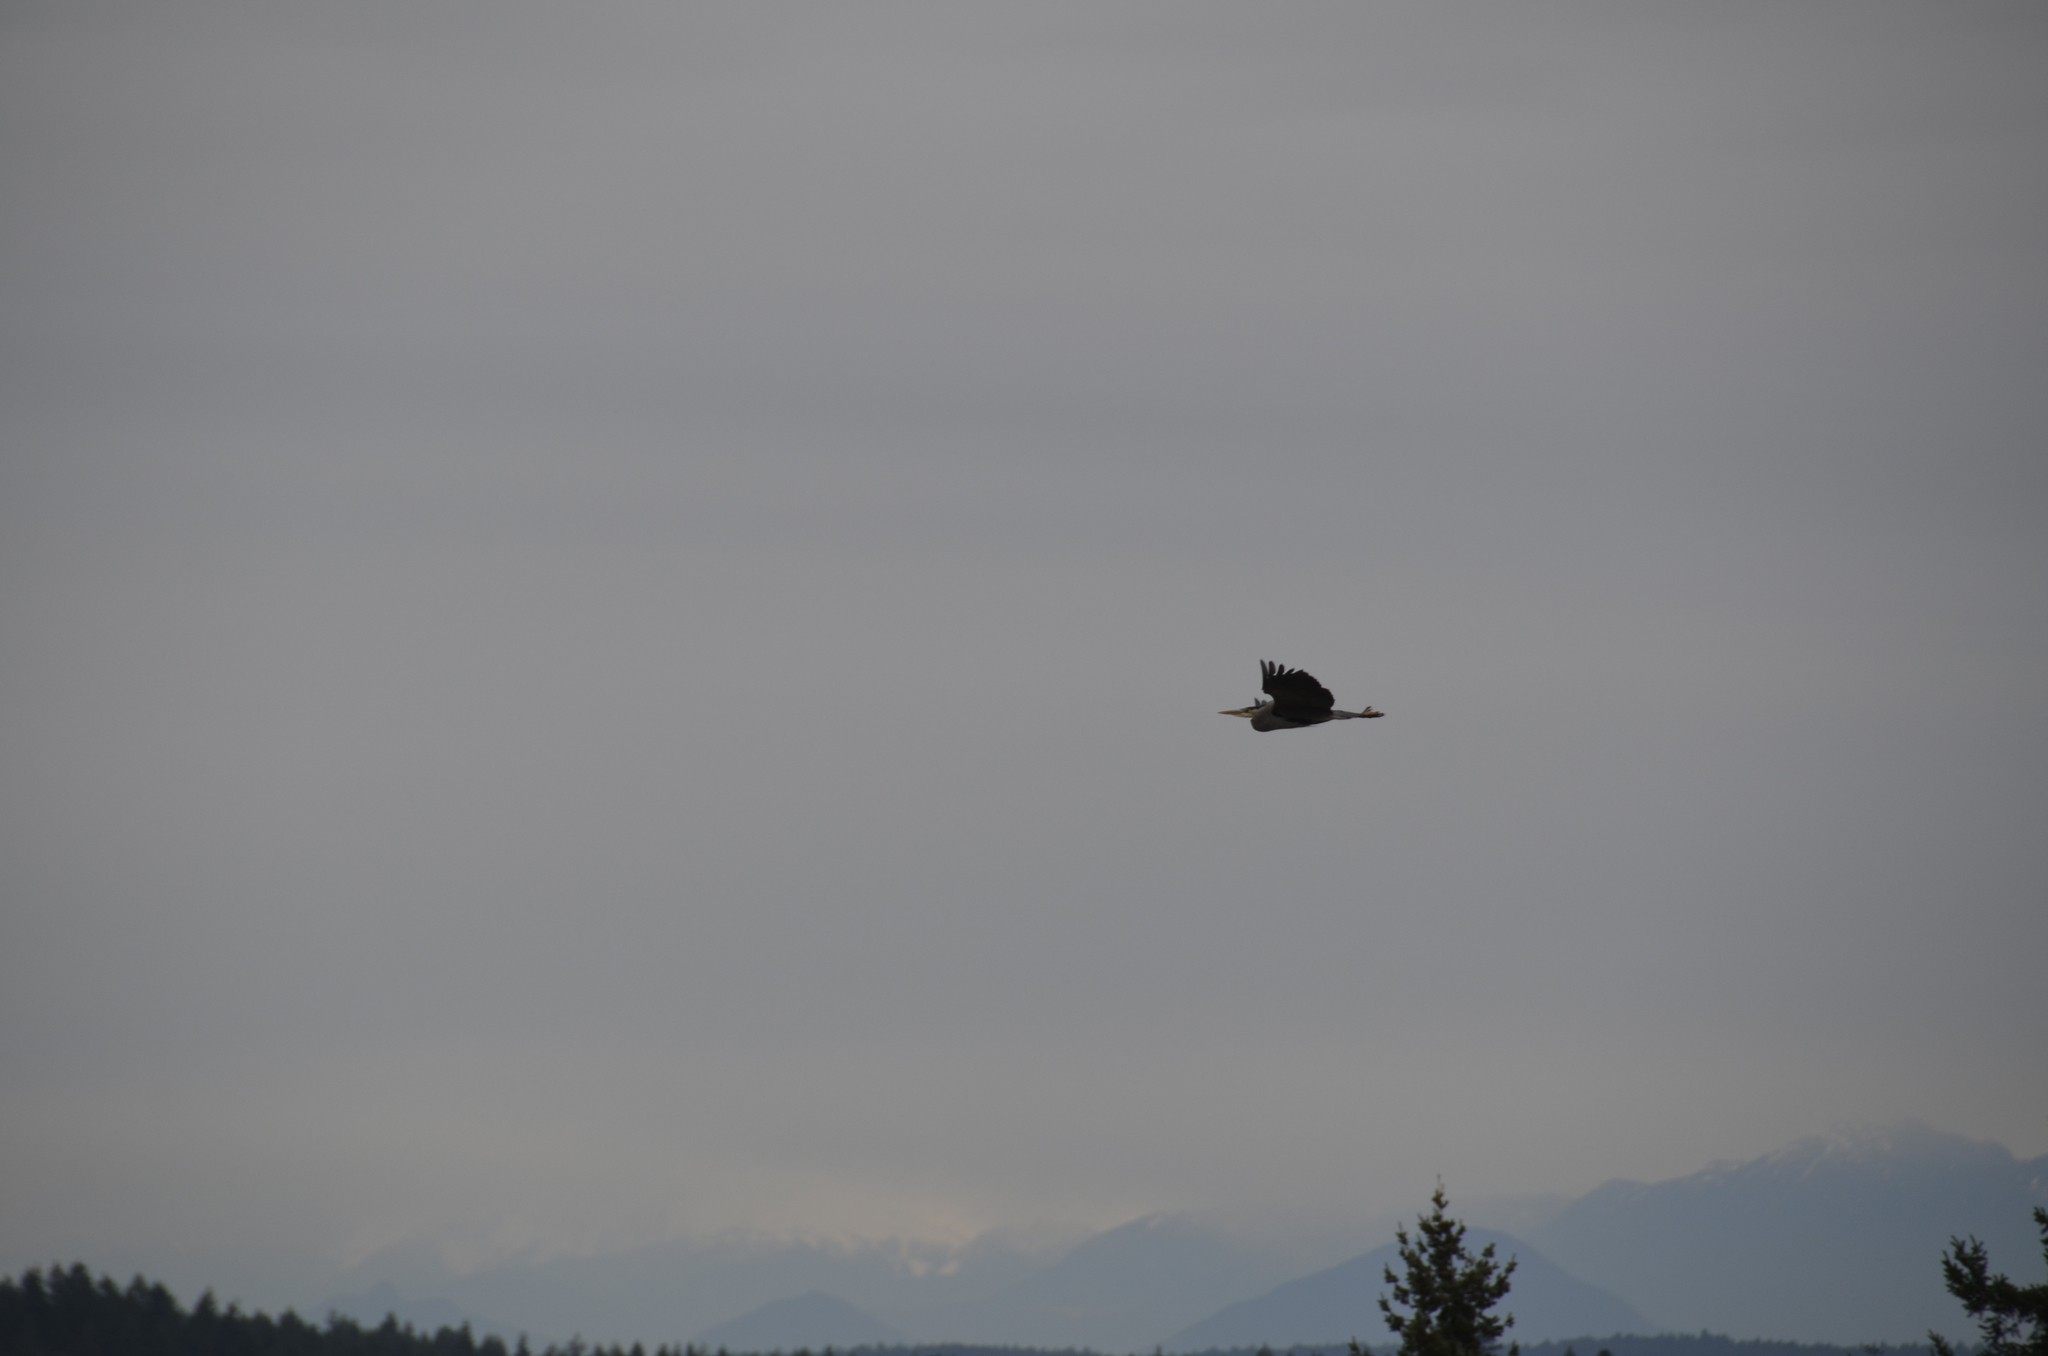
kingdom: Animalia
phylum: Chordata
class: Aves
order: Pelecaniformes
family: Ardeidae
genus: Ardea
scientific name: Ardea herodias
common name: Great blue heron
